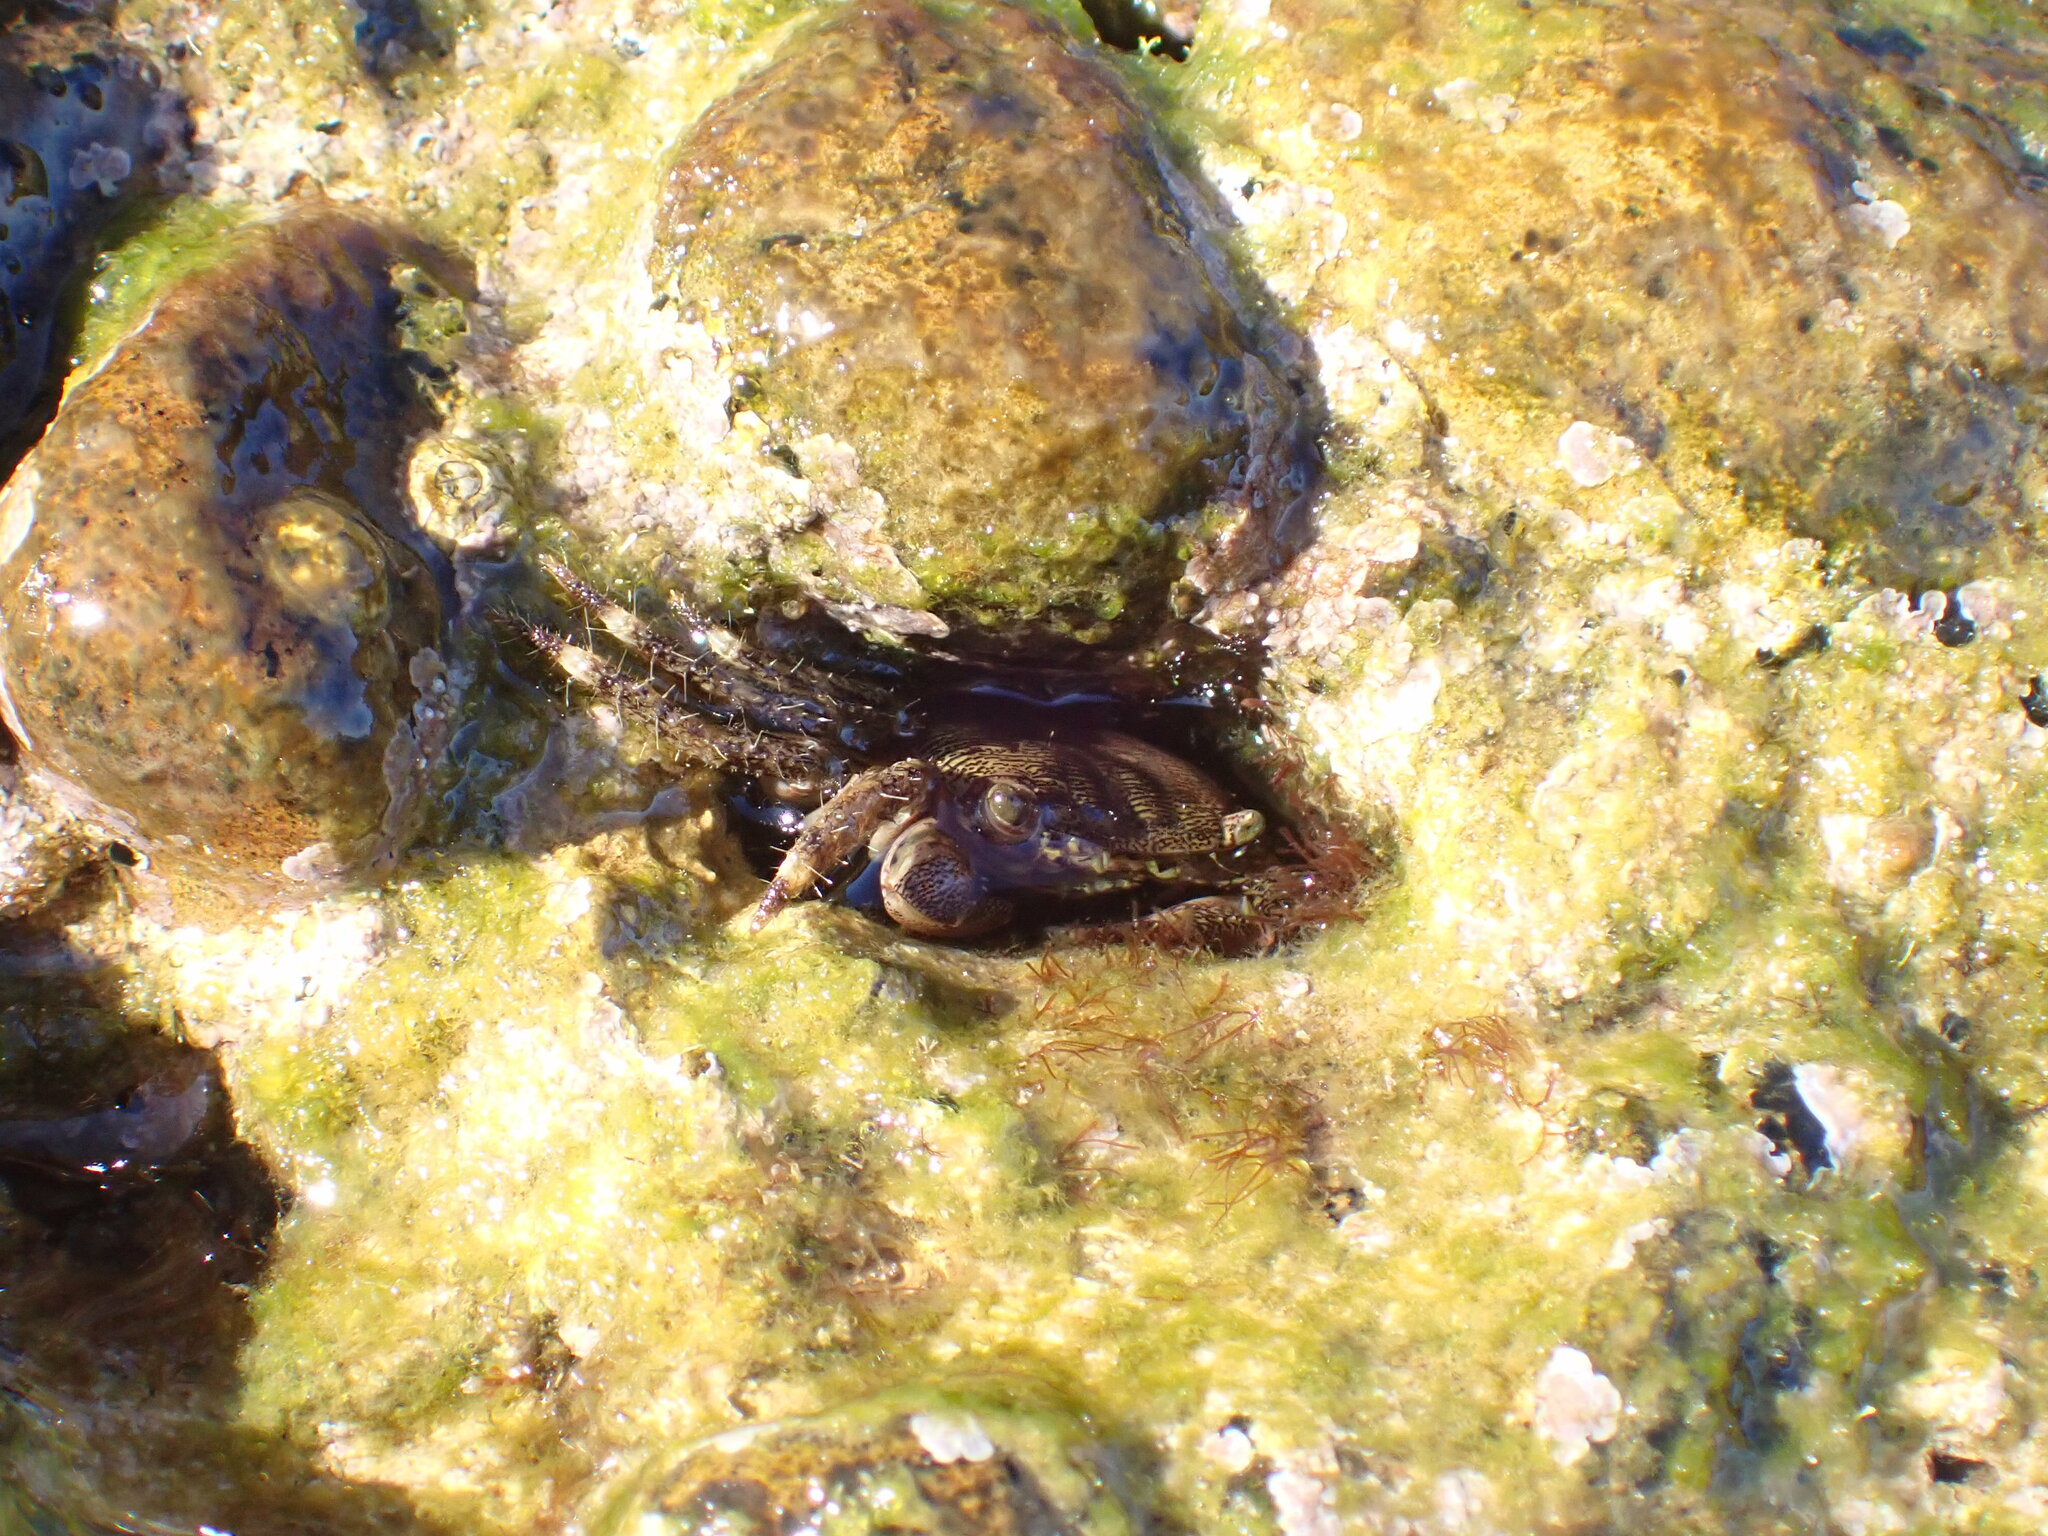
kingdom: Animalia
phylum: Arthropoda
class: Malacostraca
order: Decapoda
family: Grapsidae
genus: Pachygrapsus
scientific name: Pachygrapsus marmoratus
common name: Marbled rock crab
